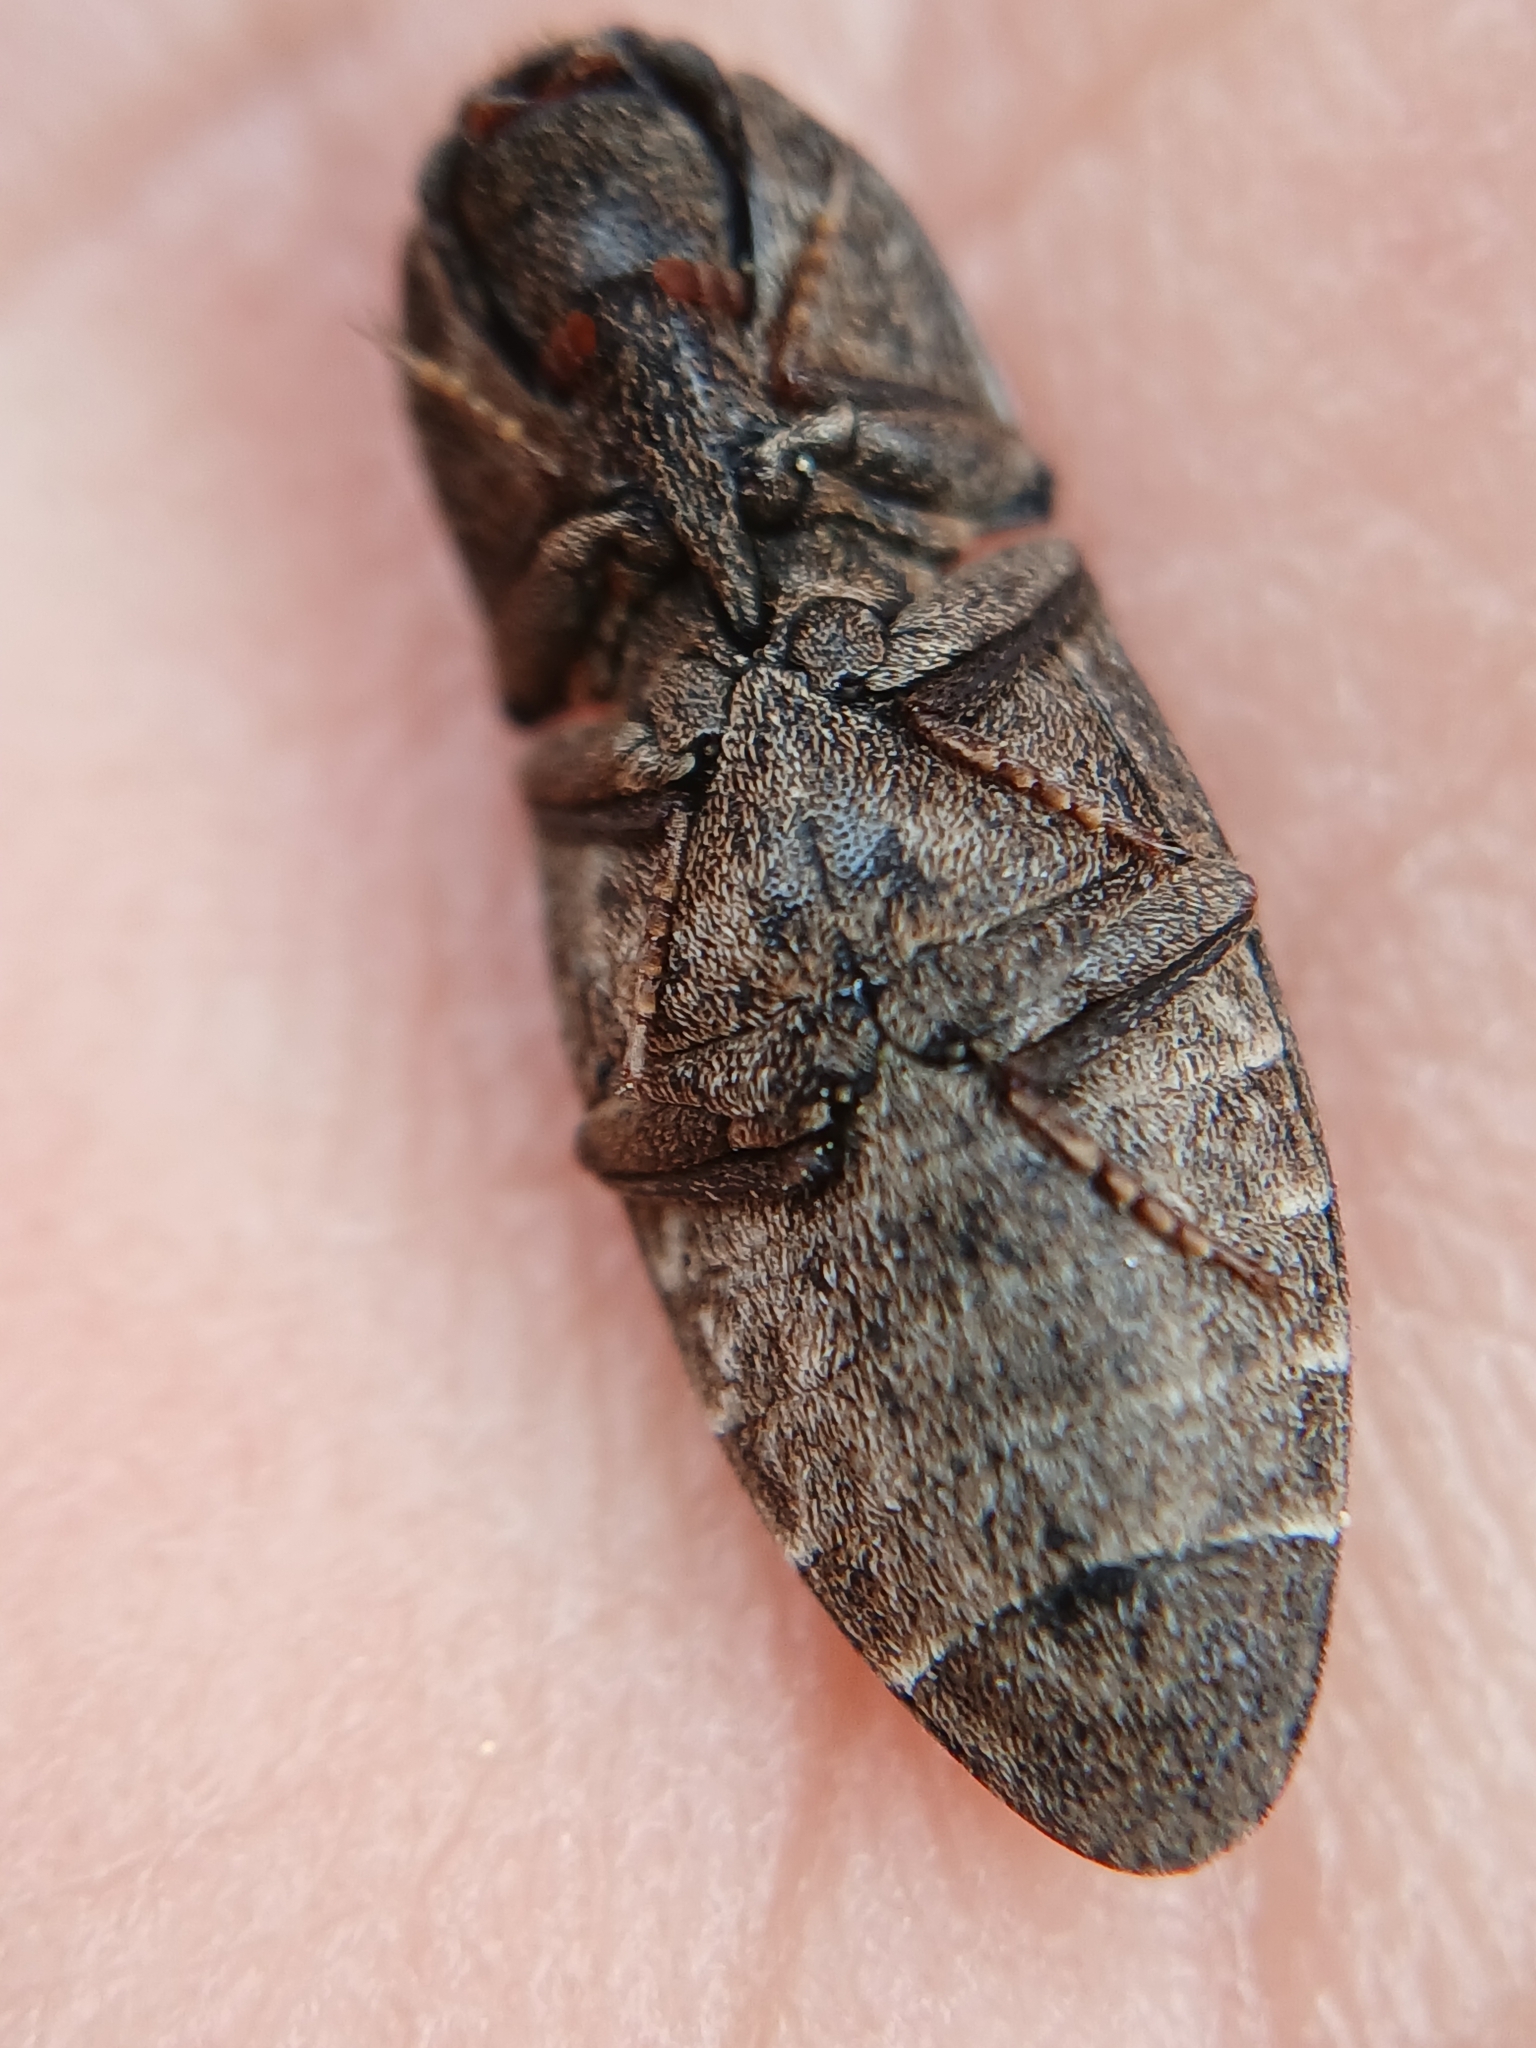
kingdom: Animalia
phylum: Arthropoda
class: Insecta
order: Coleoptera
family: Elateridae
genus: Agrypnus
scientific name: Agrypnus murinus
